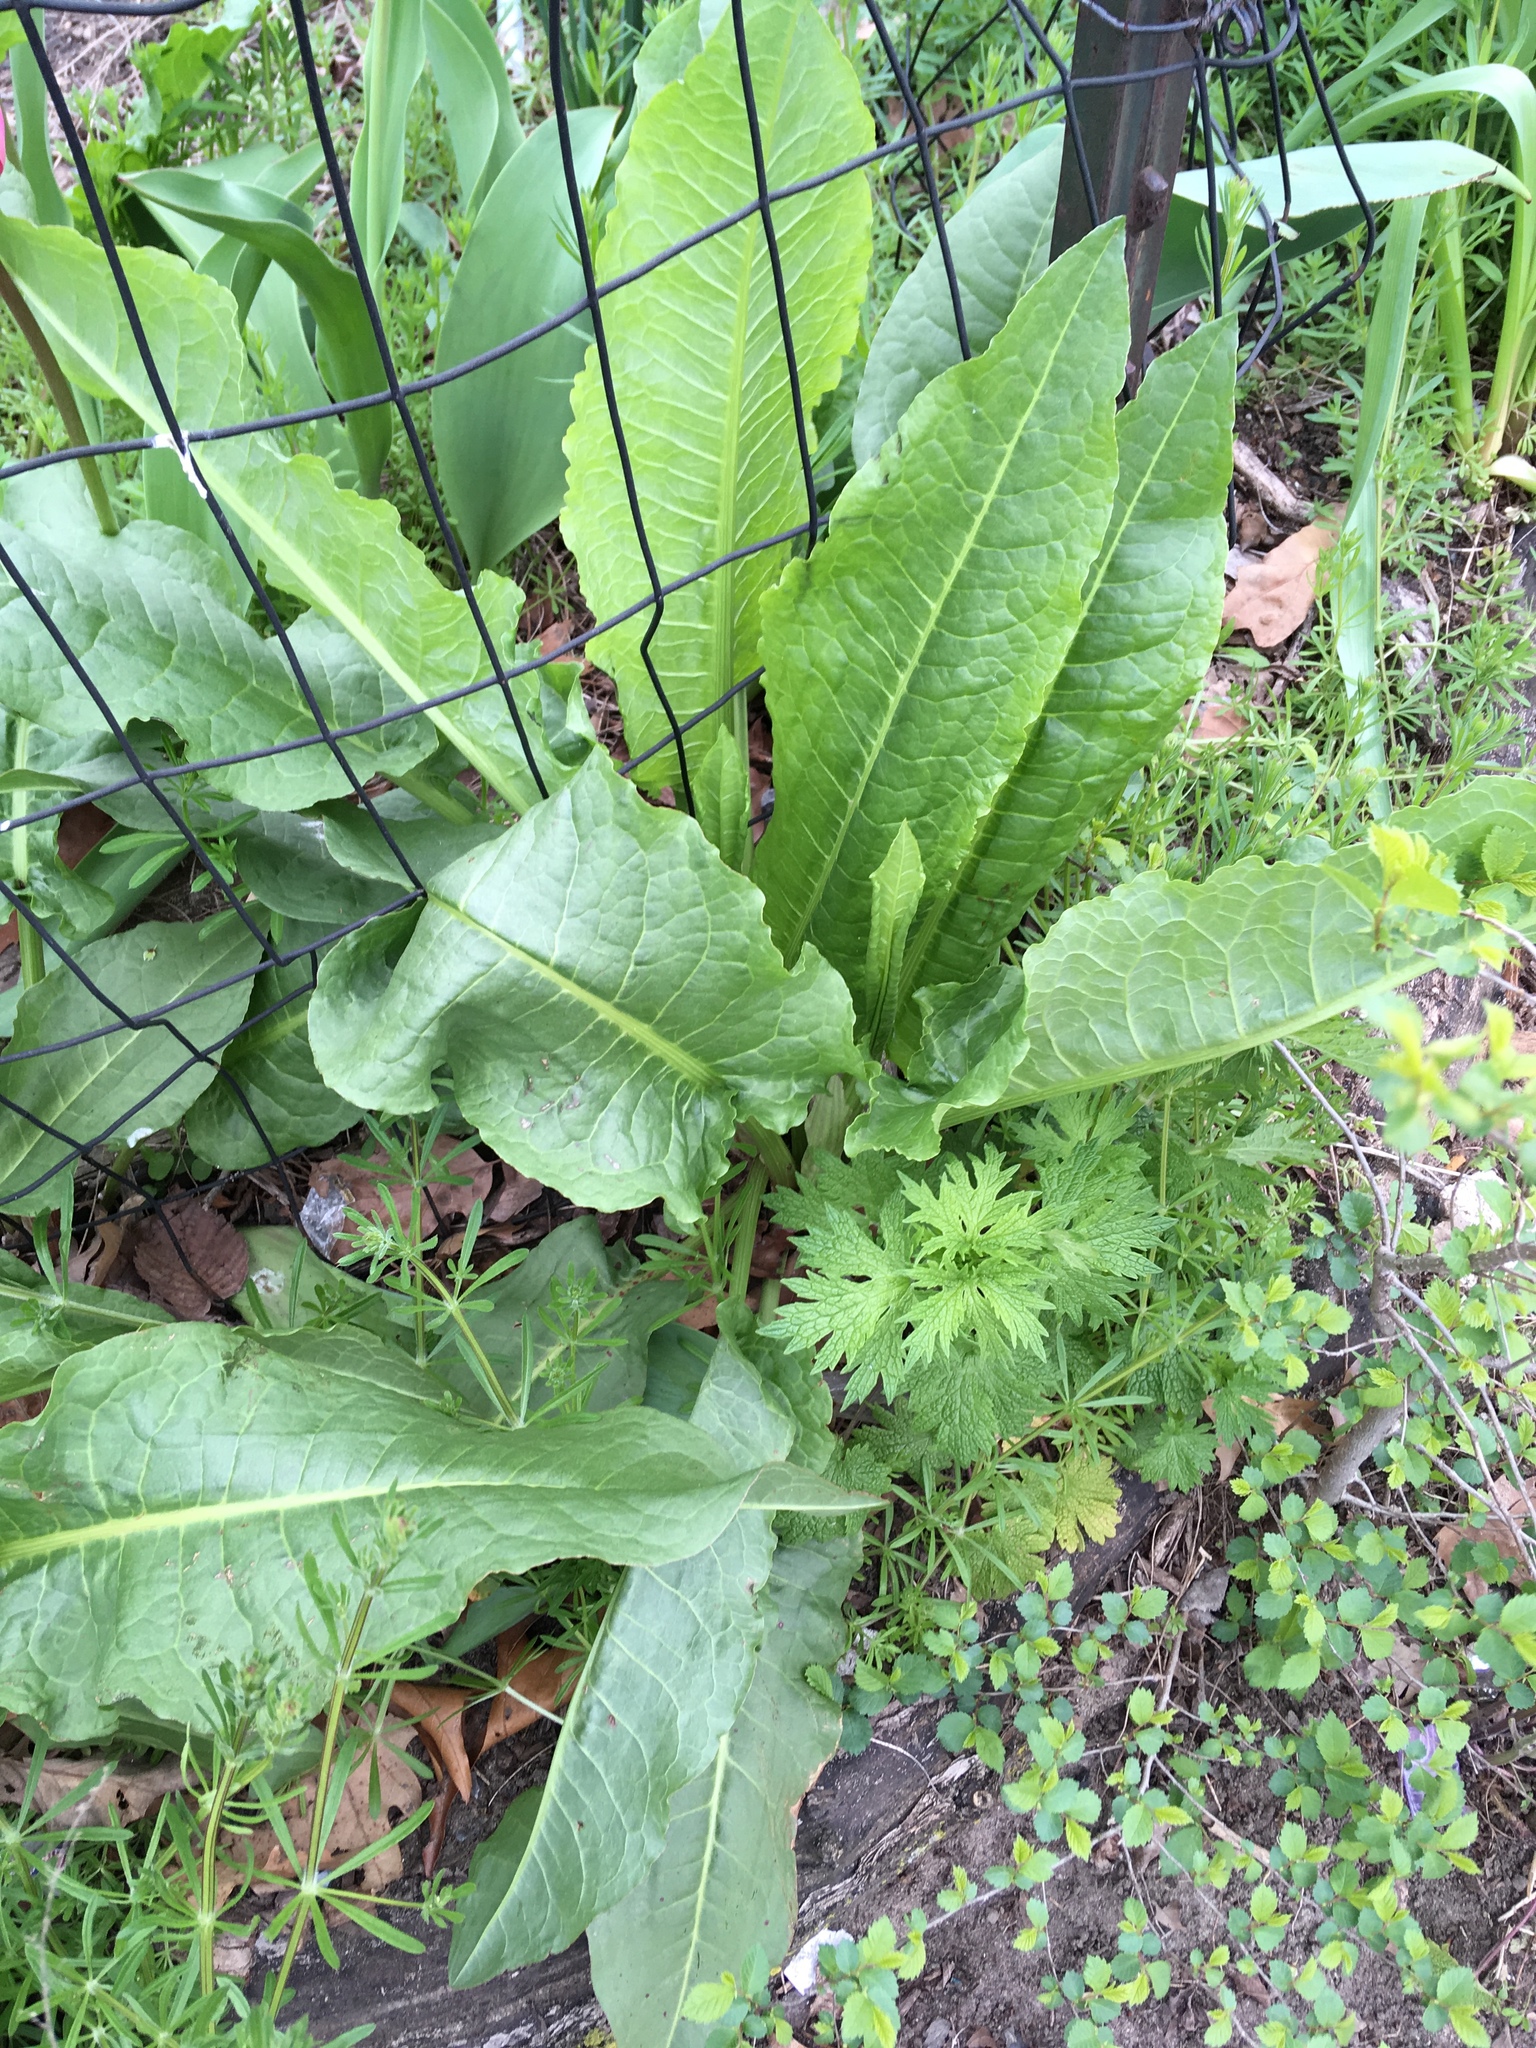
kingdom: Plantae
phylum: Tracheophyta
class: Magnoliopsida
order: Caryophyllales
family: Polygonaceae
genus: Rumex
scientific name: Rumex patientia
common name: Patience dock
